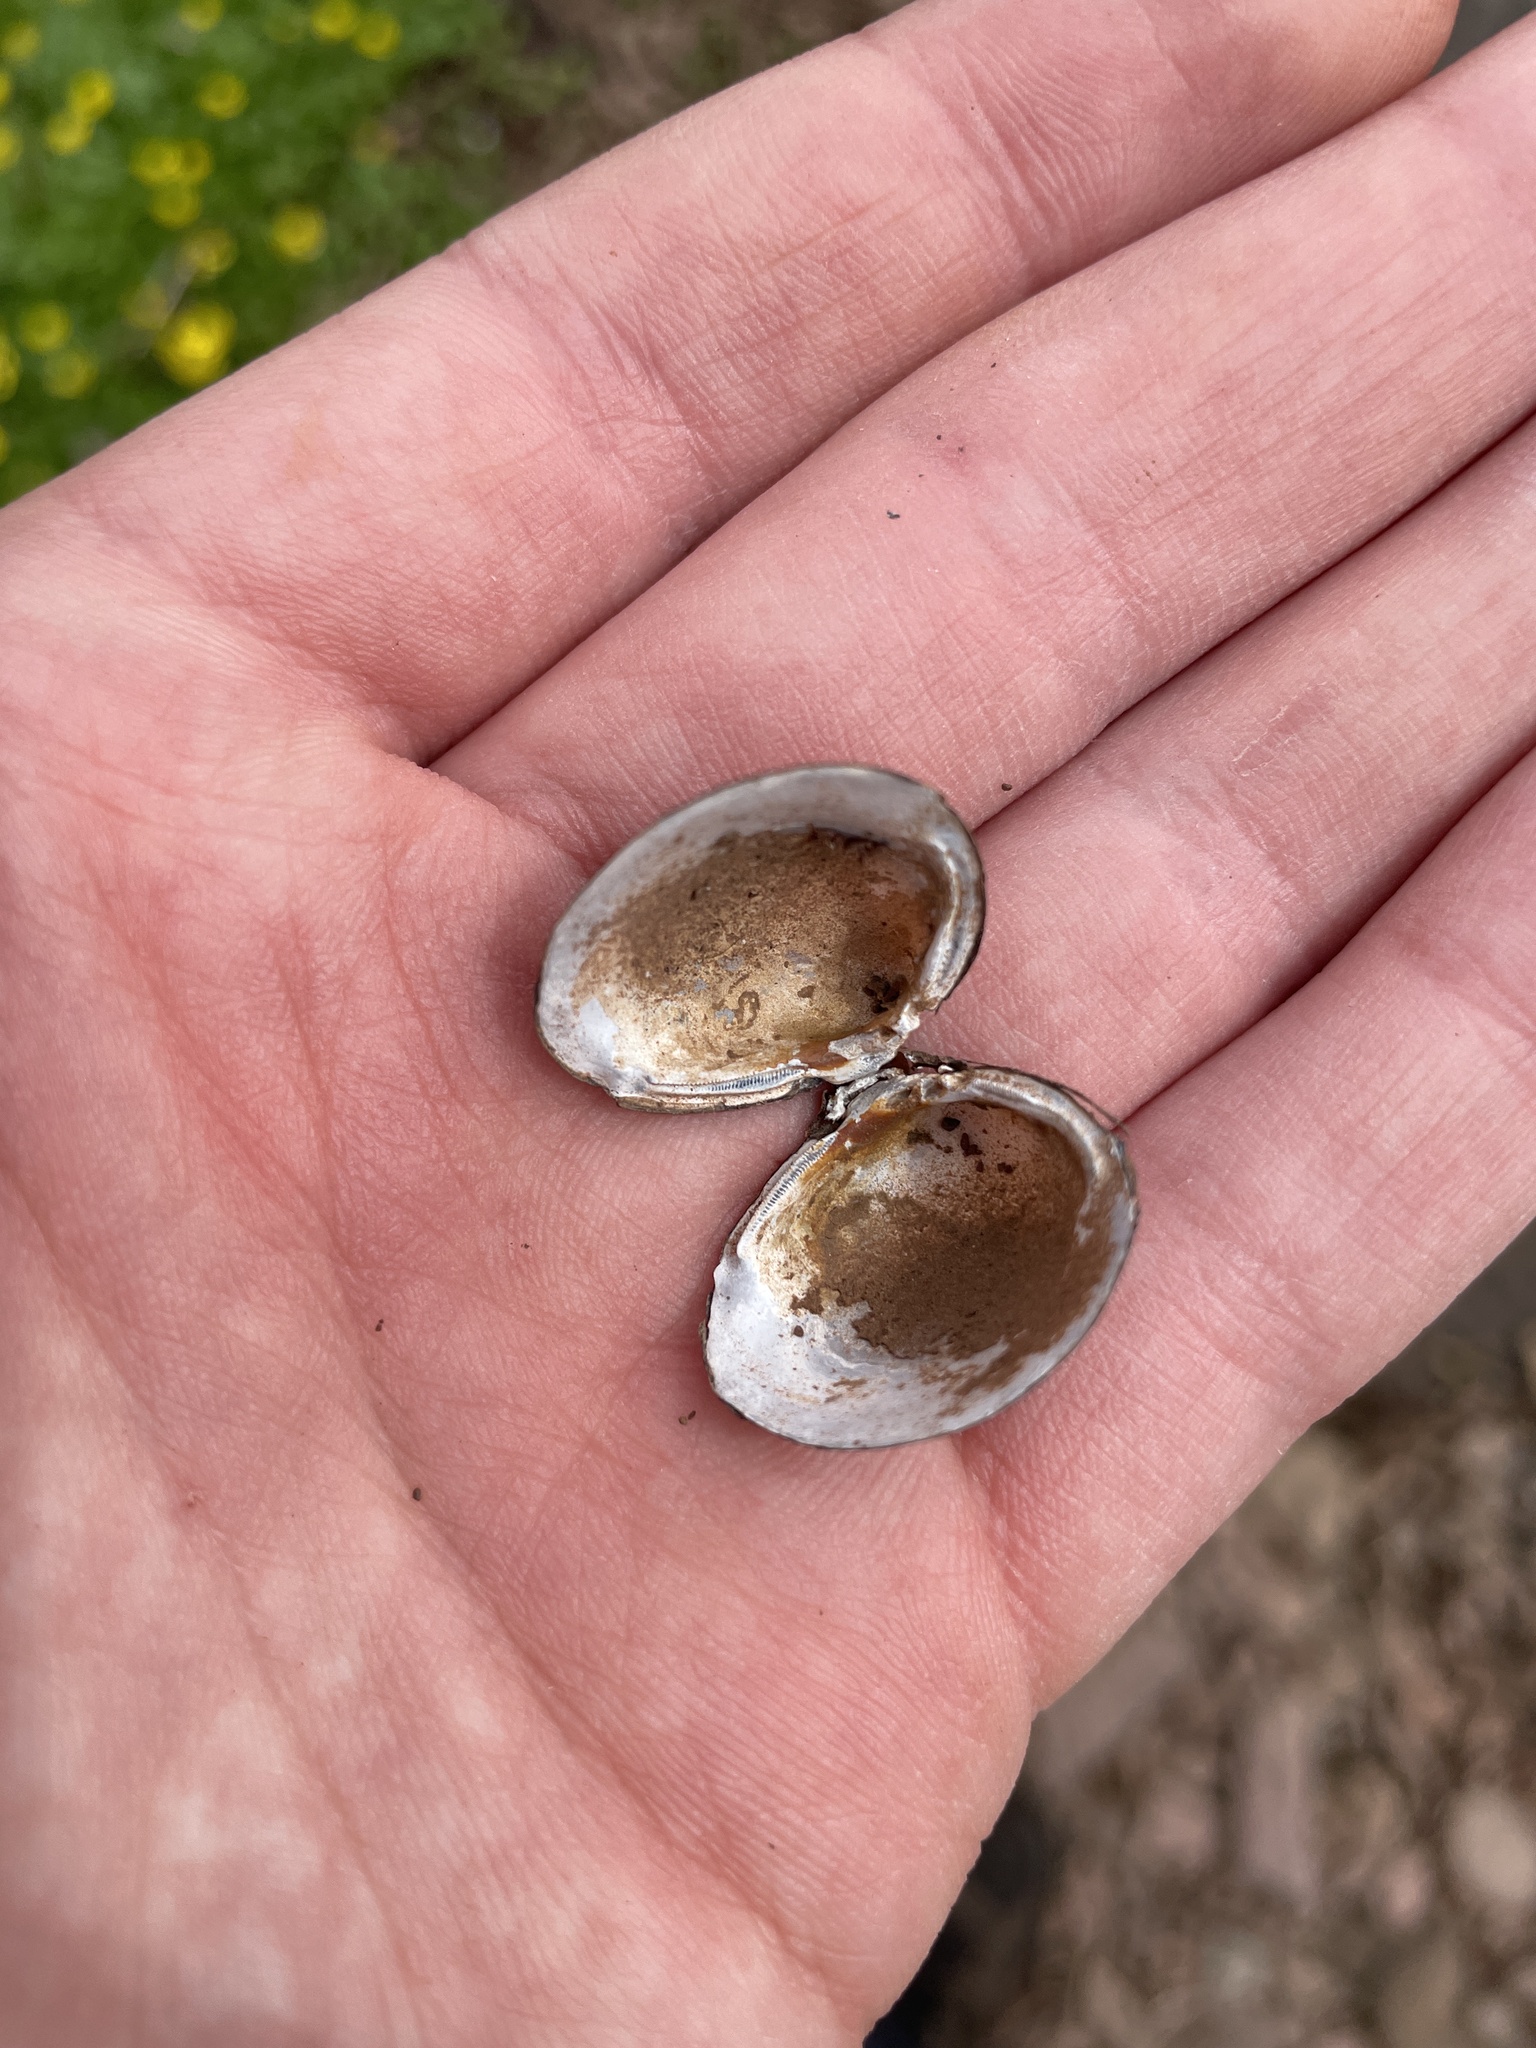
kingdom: Animalia
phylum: Mollusca
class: Bivalvia
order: Venerida
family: Cyrenidae
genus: Corbicula
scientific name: Corbicula fluminea
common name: Asian clam
